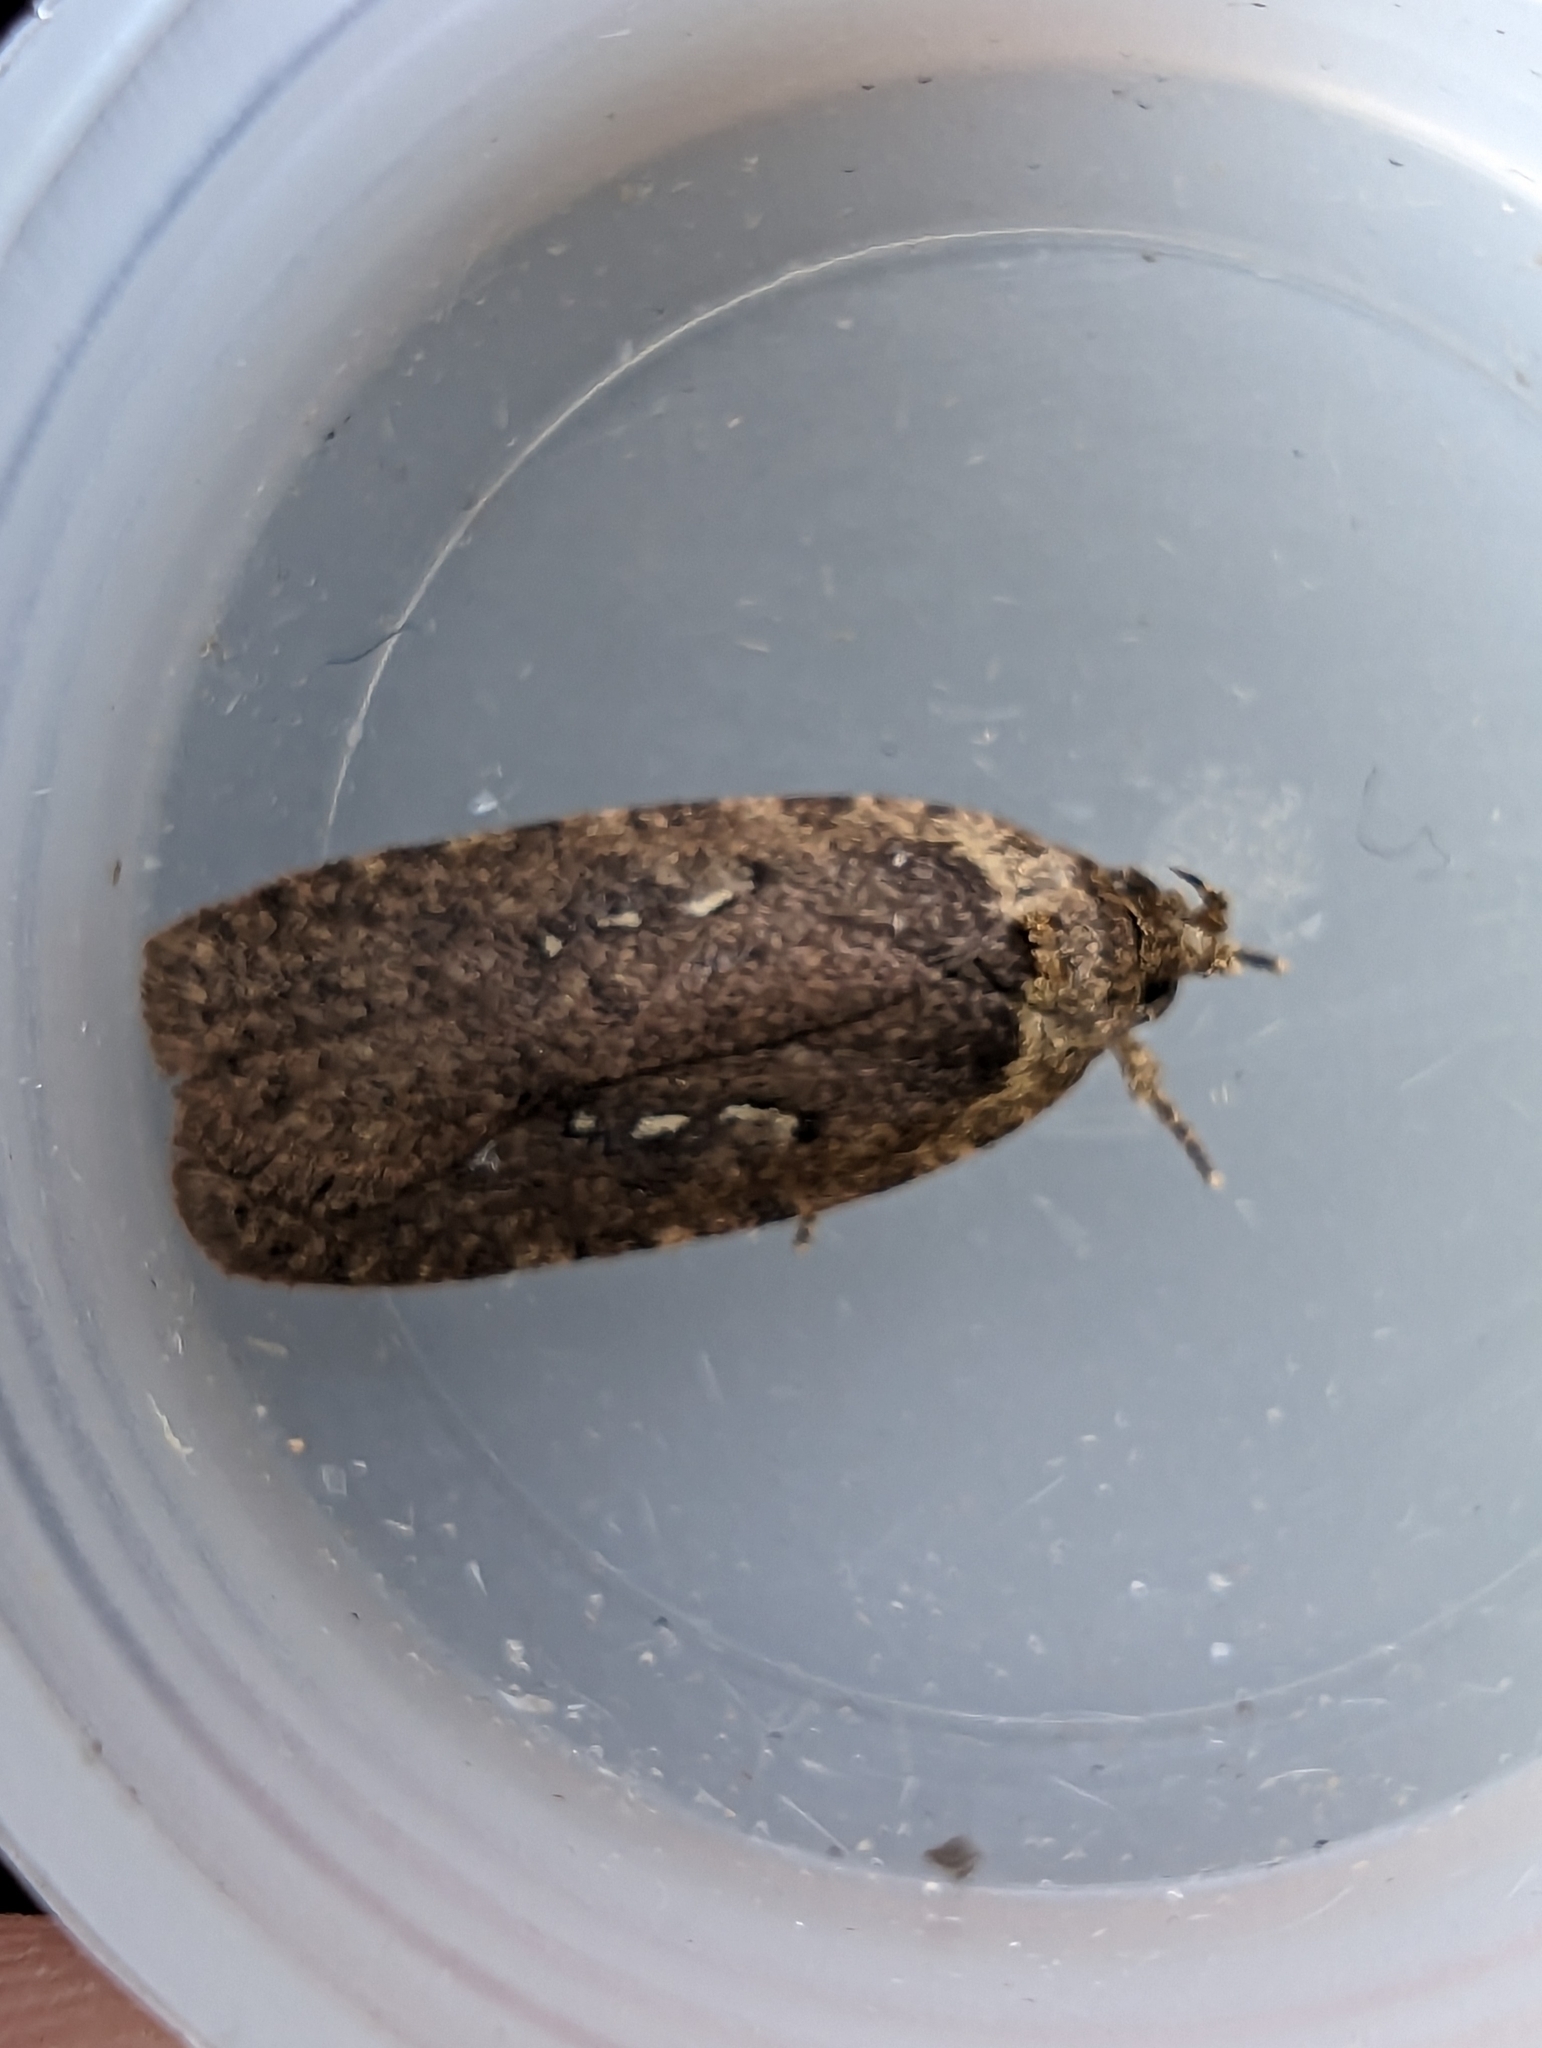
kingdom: Animalia
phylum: Arthropoda
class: Insecta
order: Lepidoptera
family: Depressariidae
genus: Agonopterix
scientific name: Agonopterix heracliana
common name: Common flat-body
